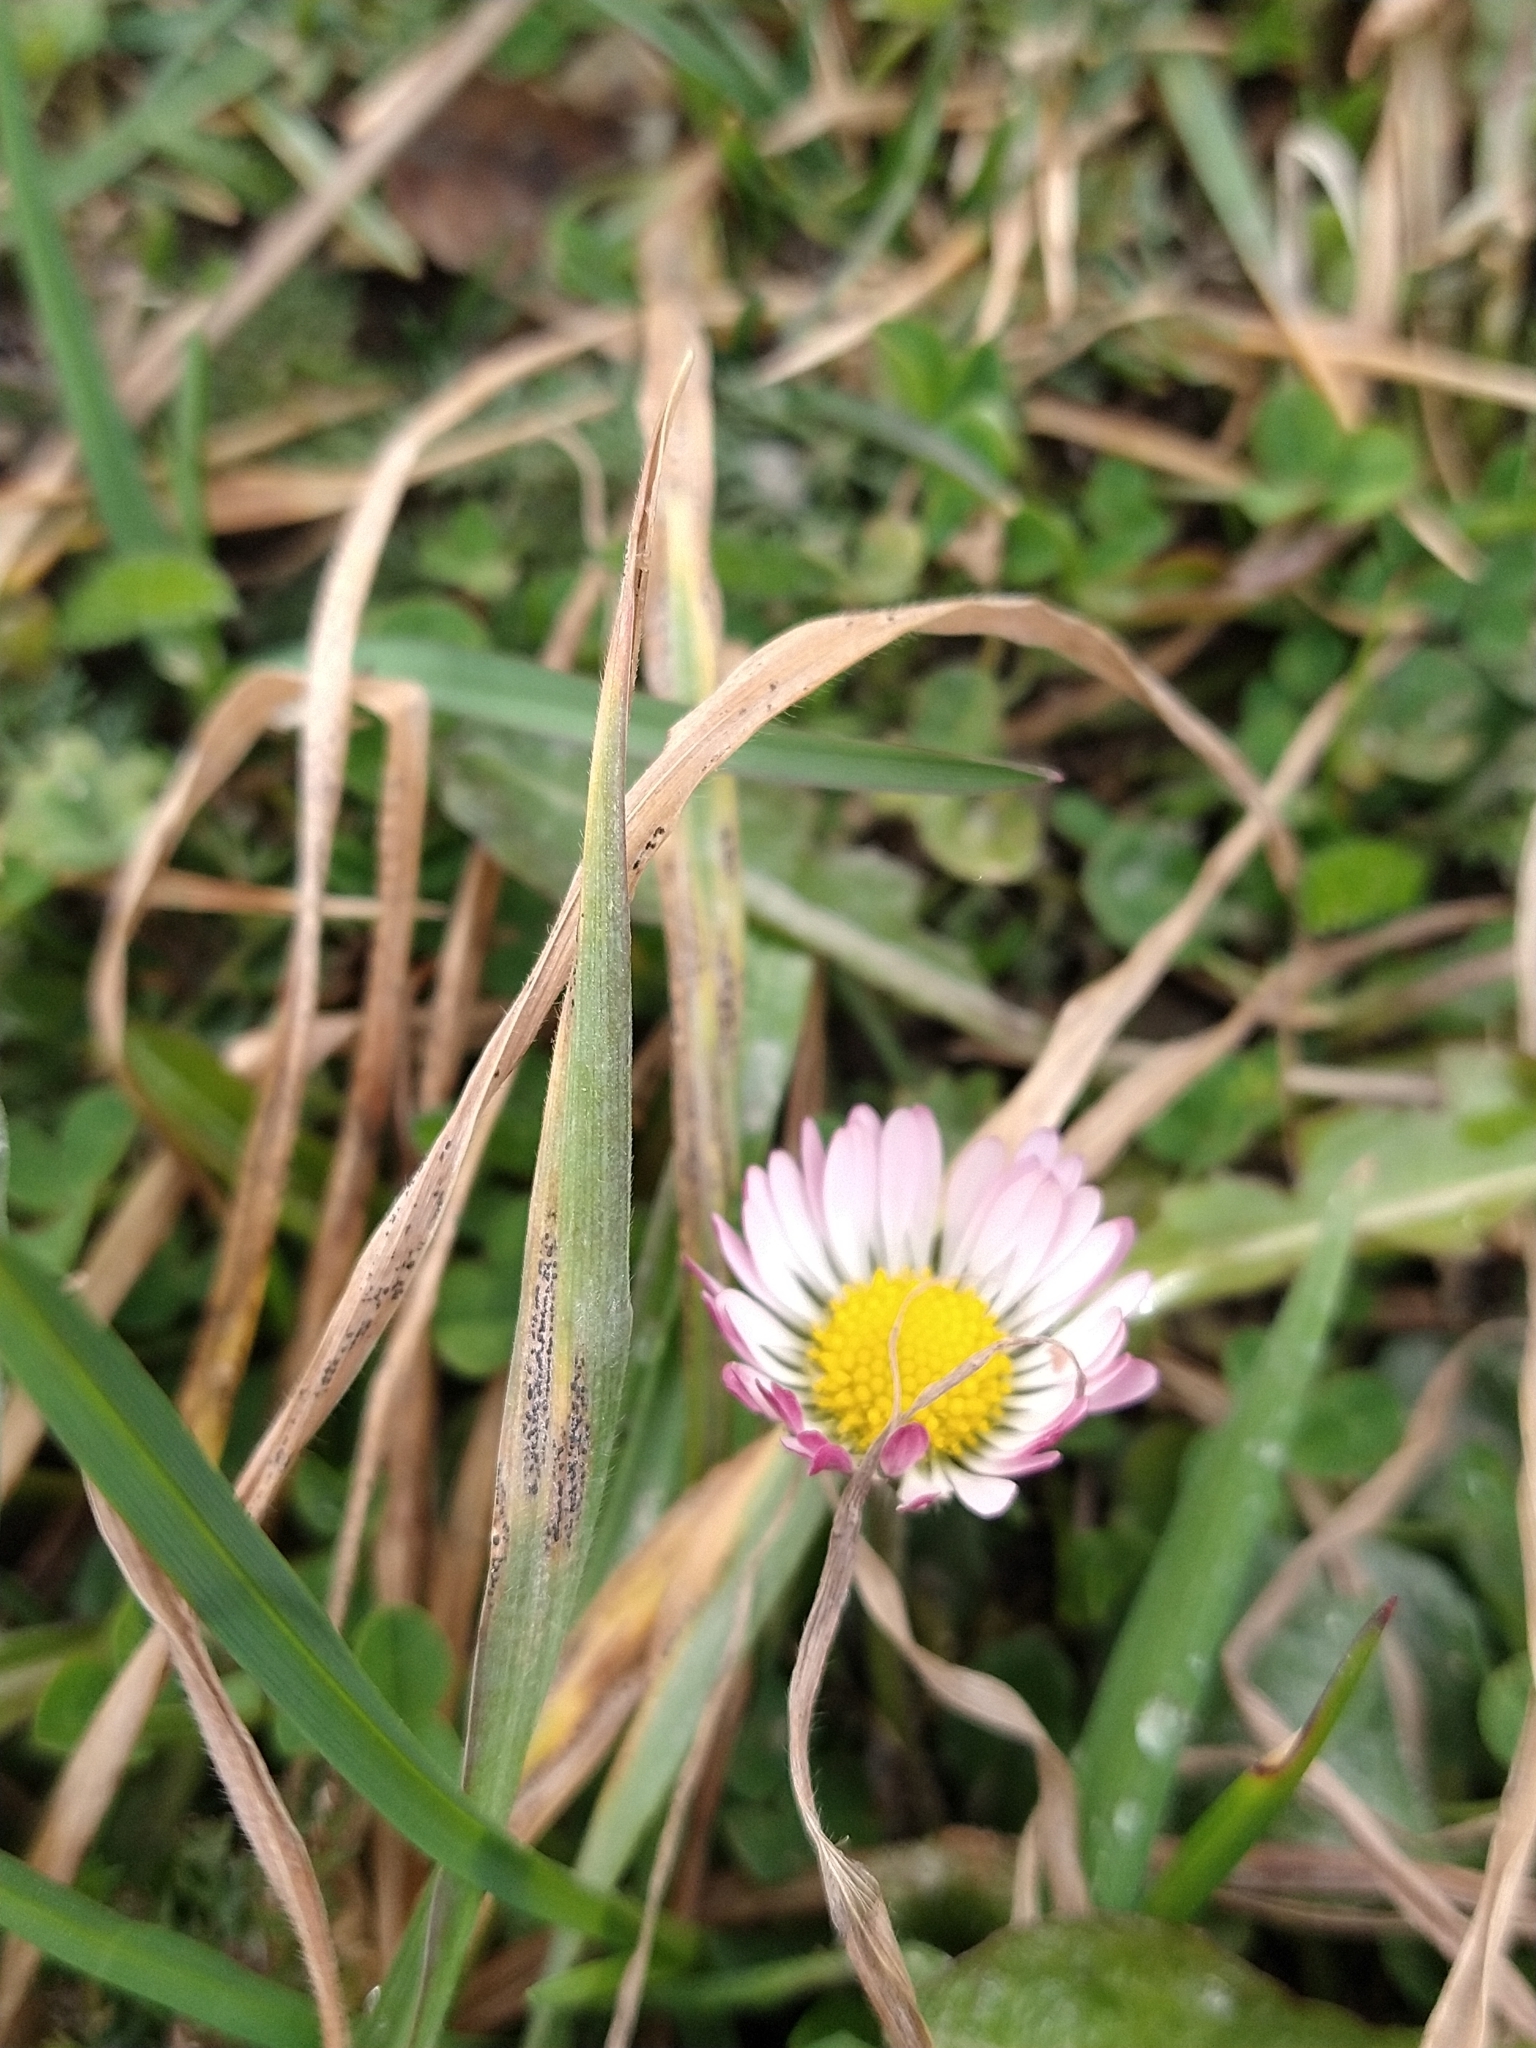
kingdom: Plantae
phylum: Tracheophyta
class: Magnoliopsida
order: Asterales
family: Asteraceae
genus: Bellis
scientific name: Bellis perennis
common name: Lawndaisy
